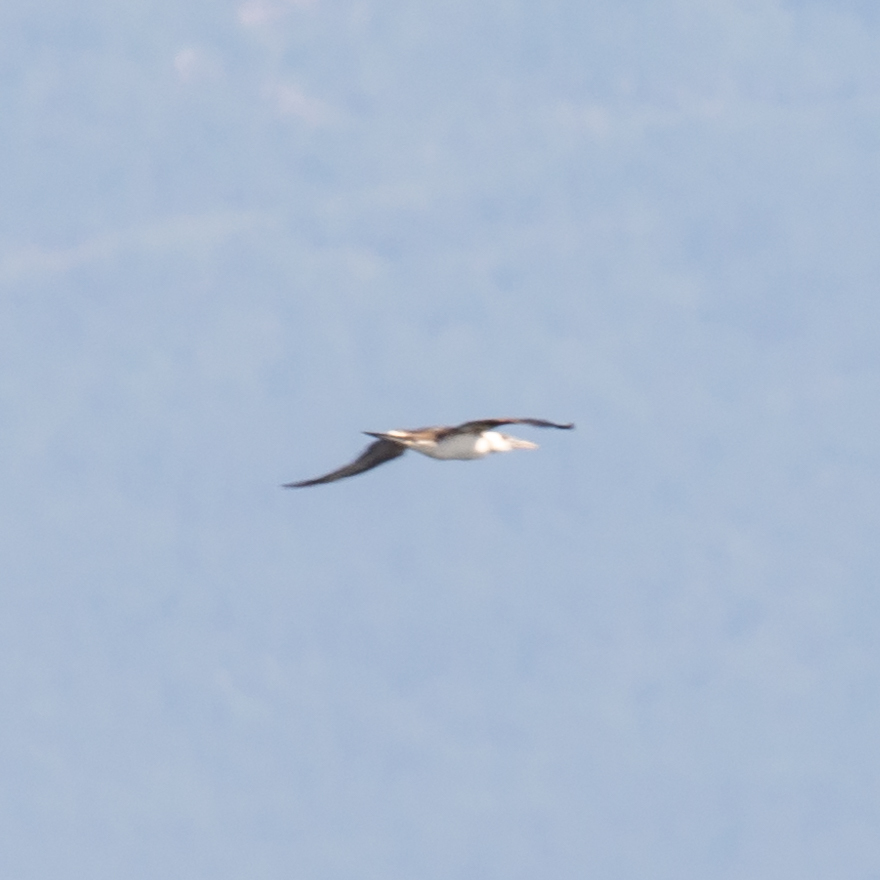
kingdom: Animalia
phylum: Chordata
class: Aves
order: Suliformes
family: Sulidae
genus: Morus
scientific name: Morus bassanus
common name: Northern gannet
